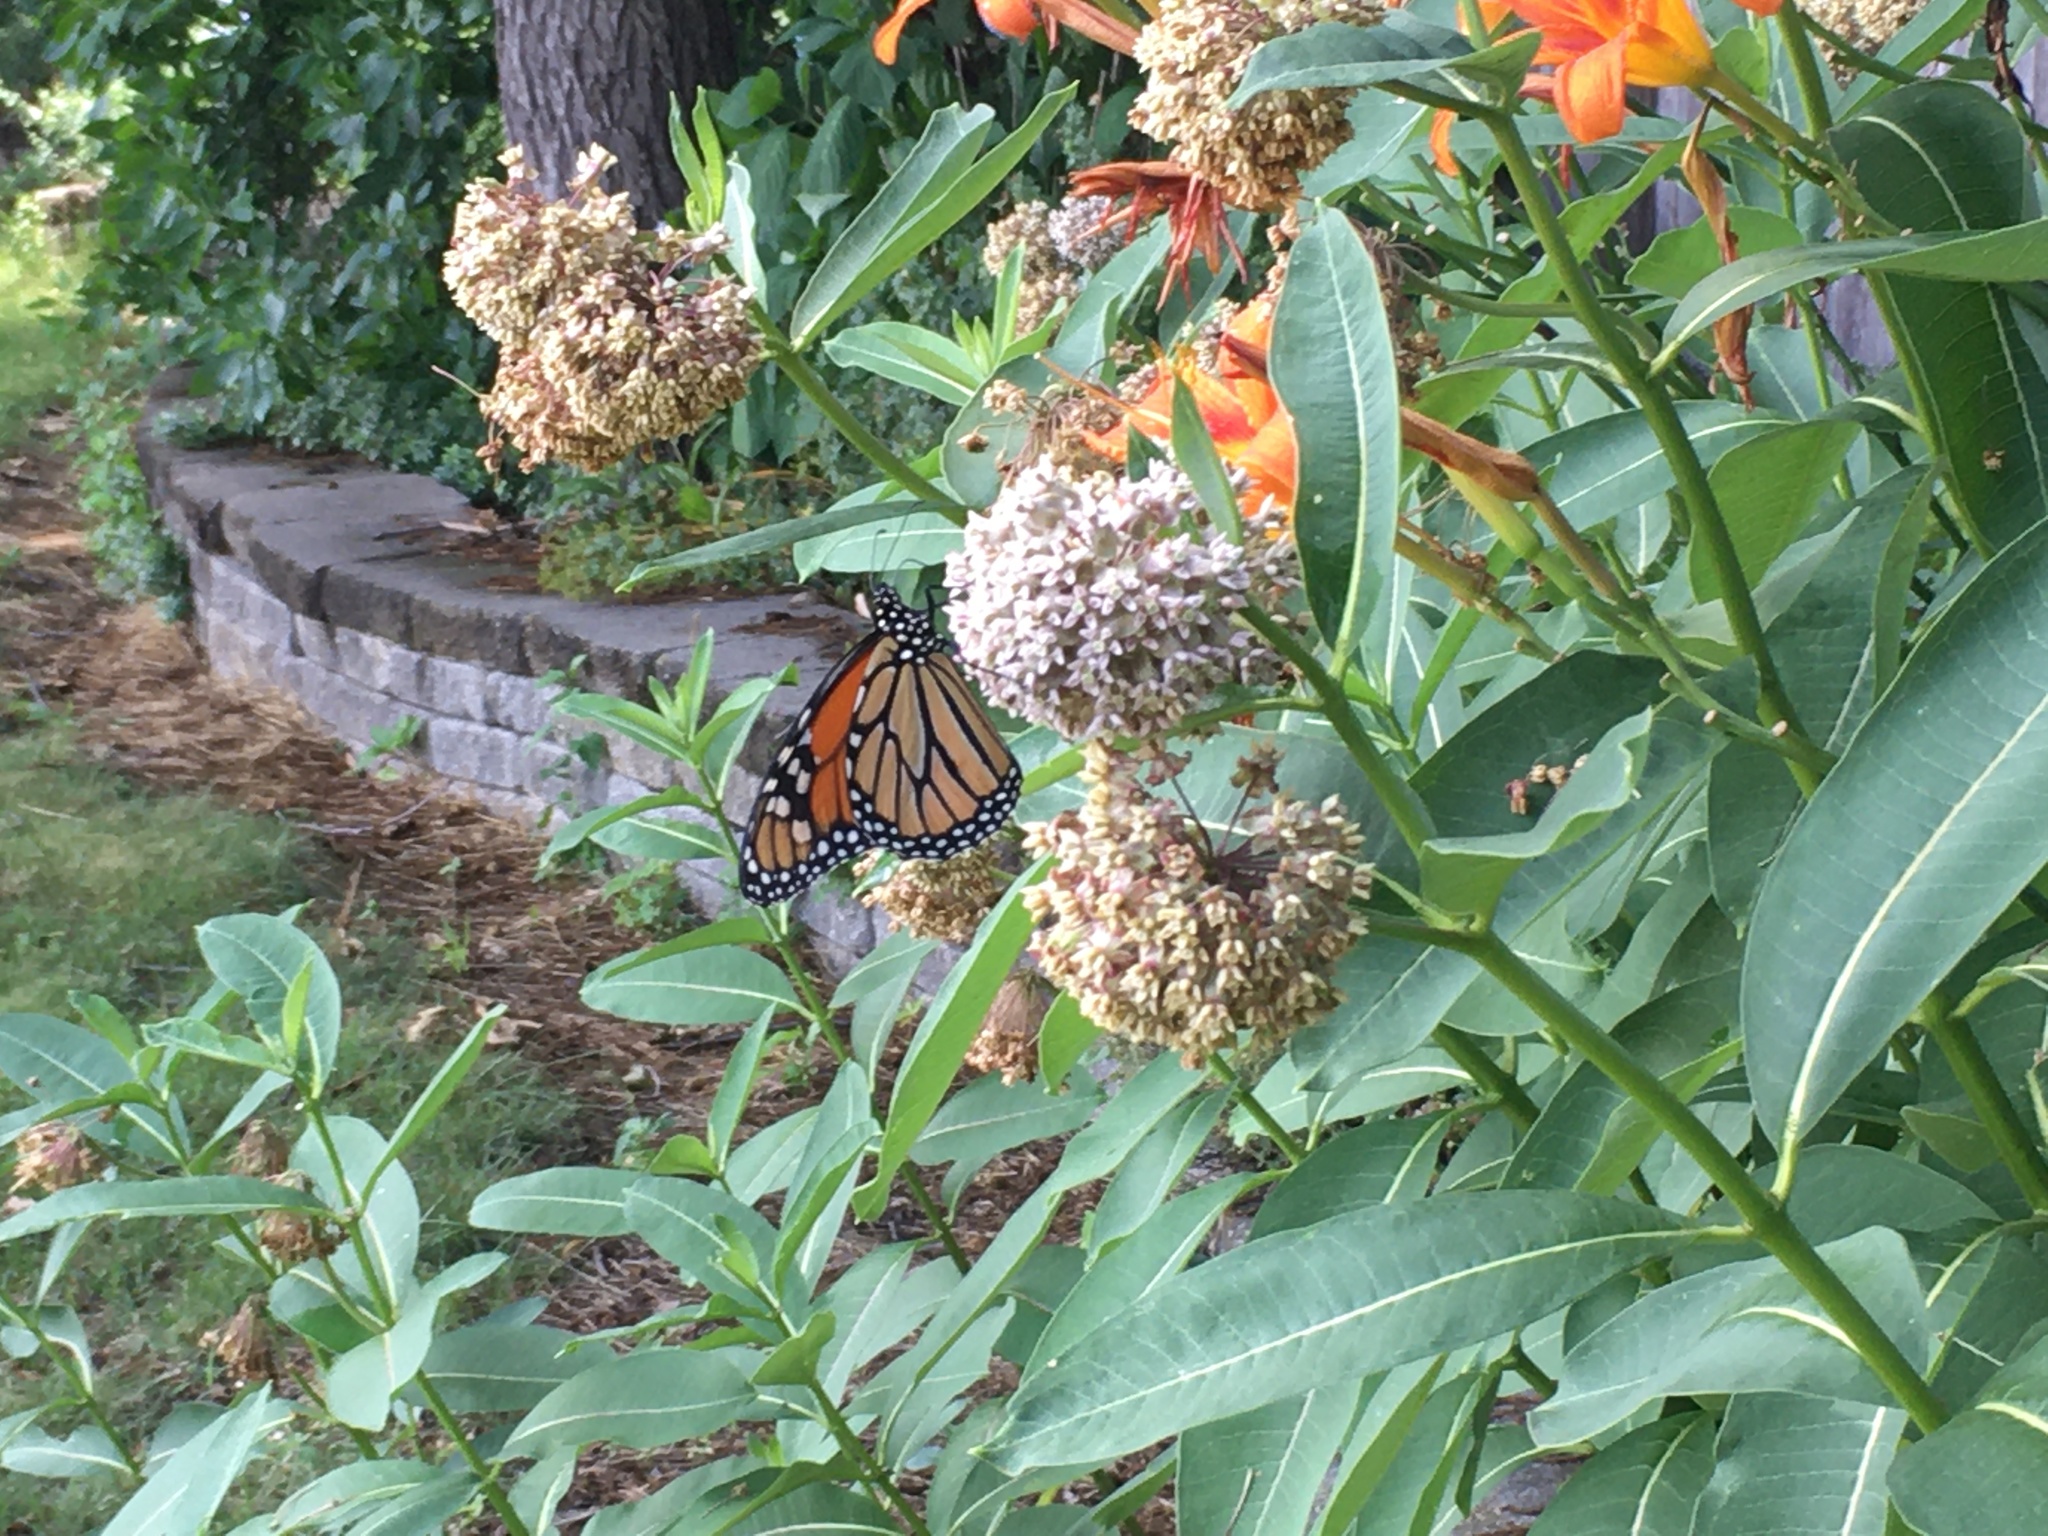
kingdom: Animalia
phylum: Arthropoda
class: Insecta
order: Lepidoptera
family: Nymphalidae
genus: Danaus
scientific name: Danaus plexippus
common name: Monarch
